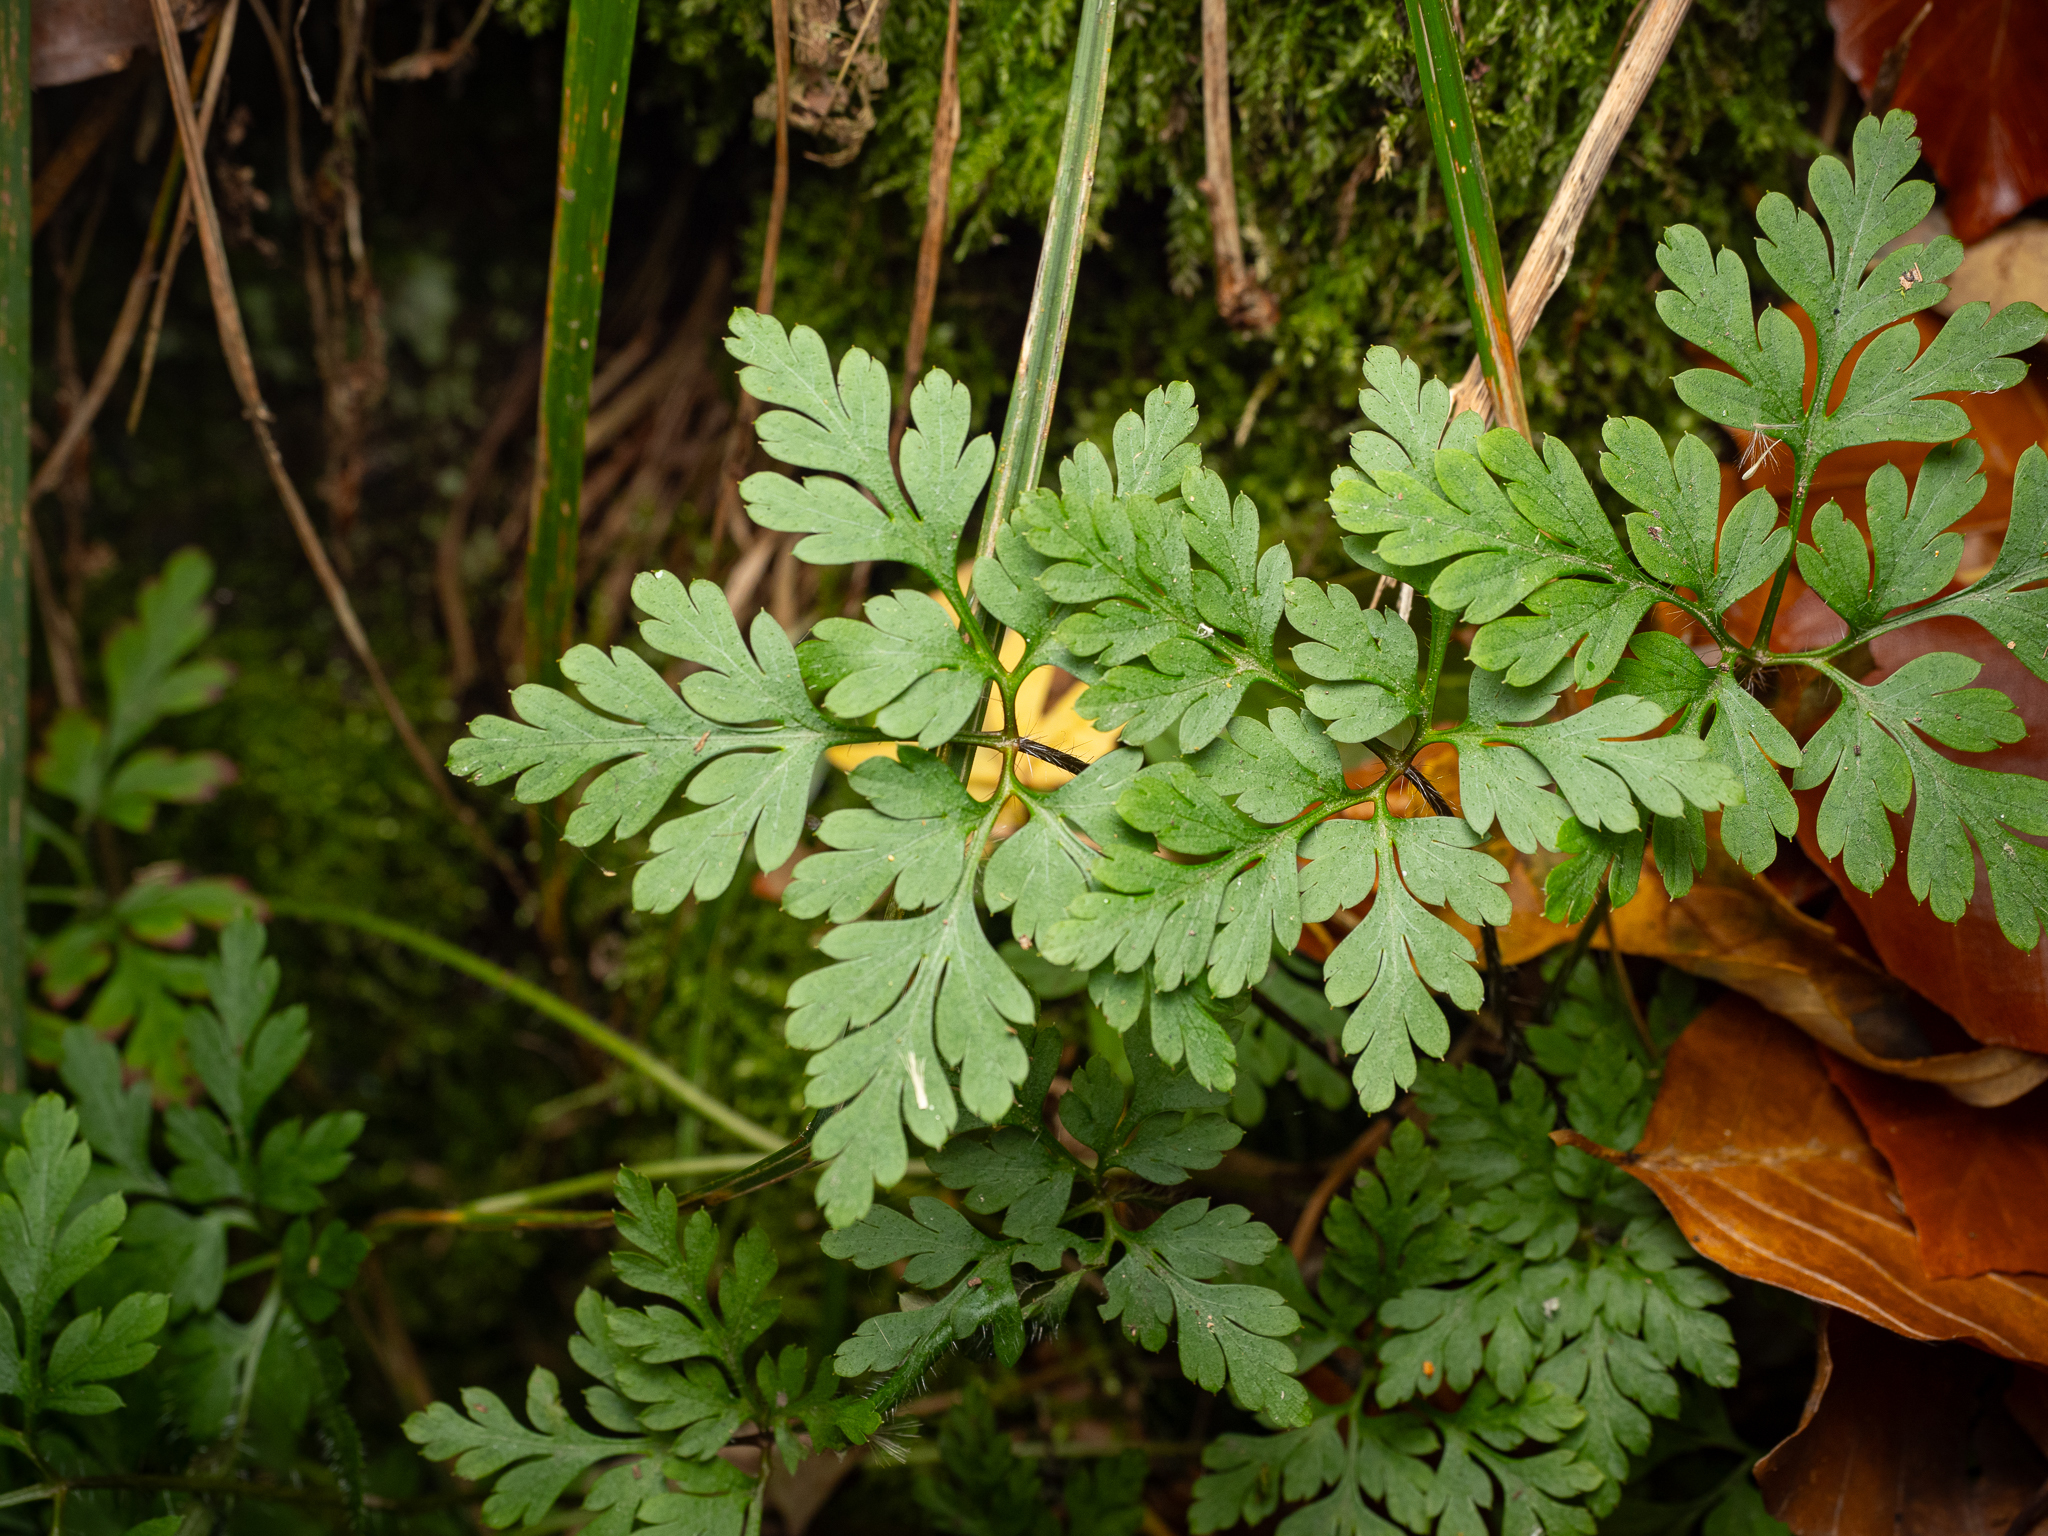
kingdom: Plantae
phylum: Tracheophyta
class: Magnoliopsida
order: Geraniales
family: Geraniaceae
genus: Geranium
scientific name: Geranium robertianum
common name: Herb-robert
